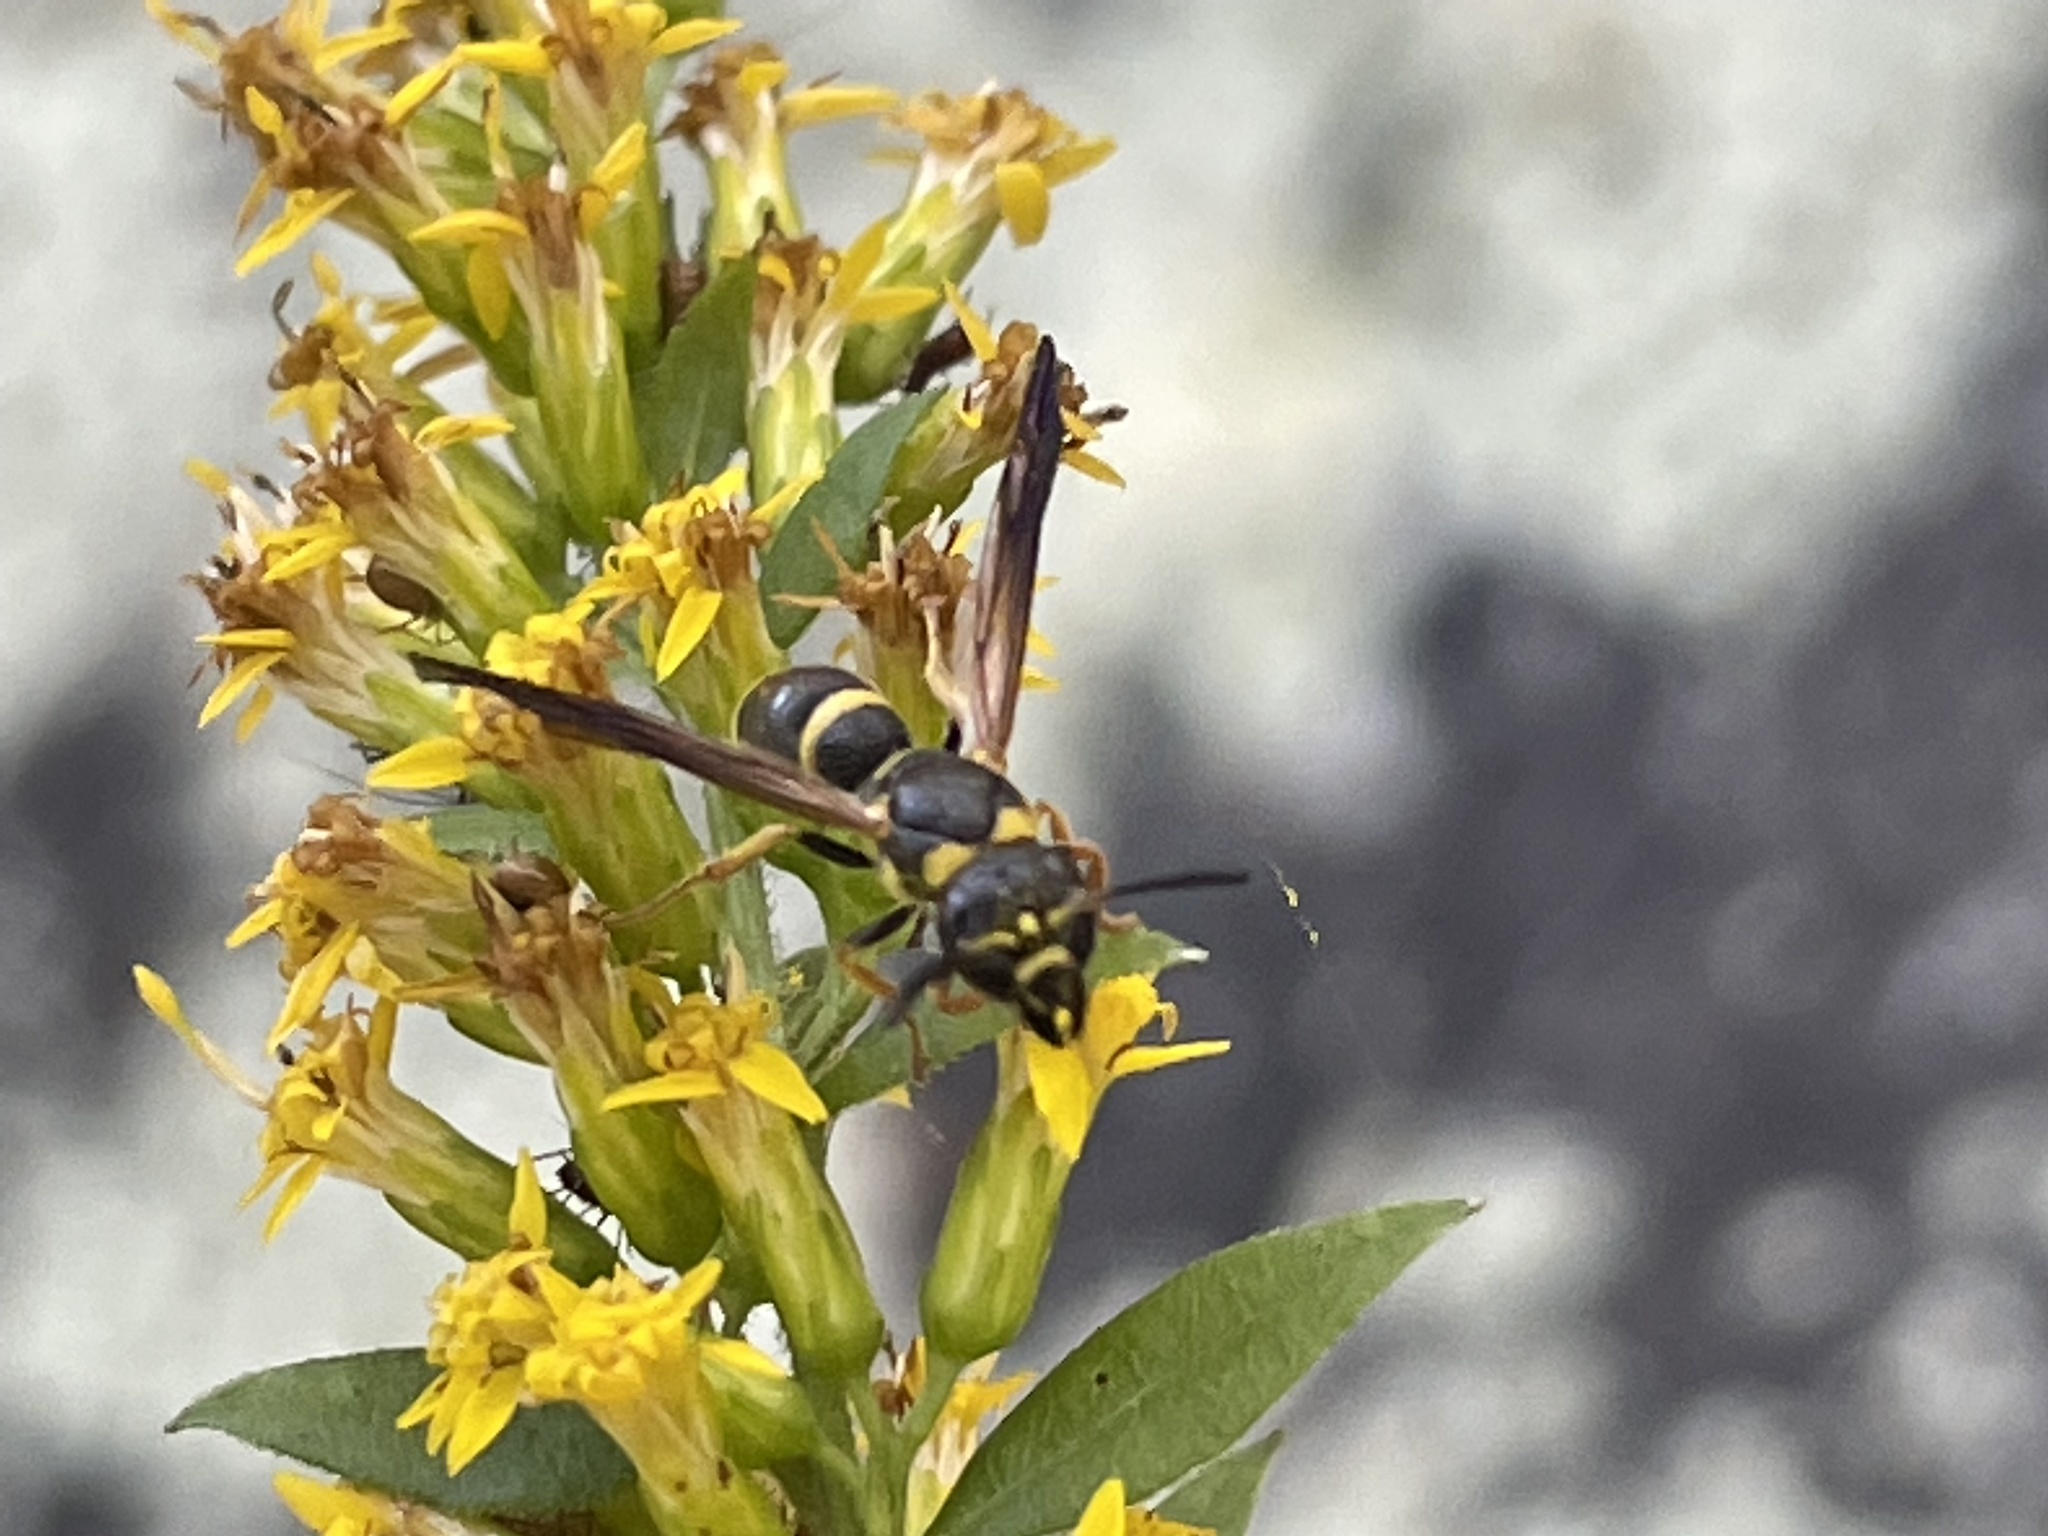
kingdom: Animalia
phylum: Arthropoda
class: Insecta
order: Hymenoptera
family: Eumenidae
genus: Parancistrocerus
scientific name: Parancistrocerus perennis
